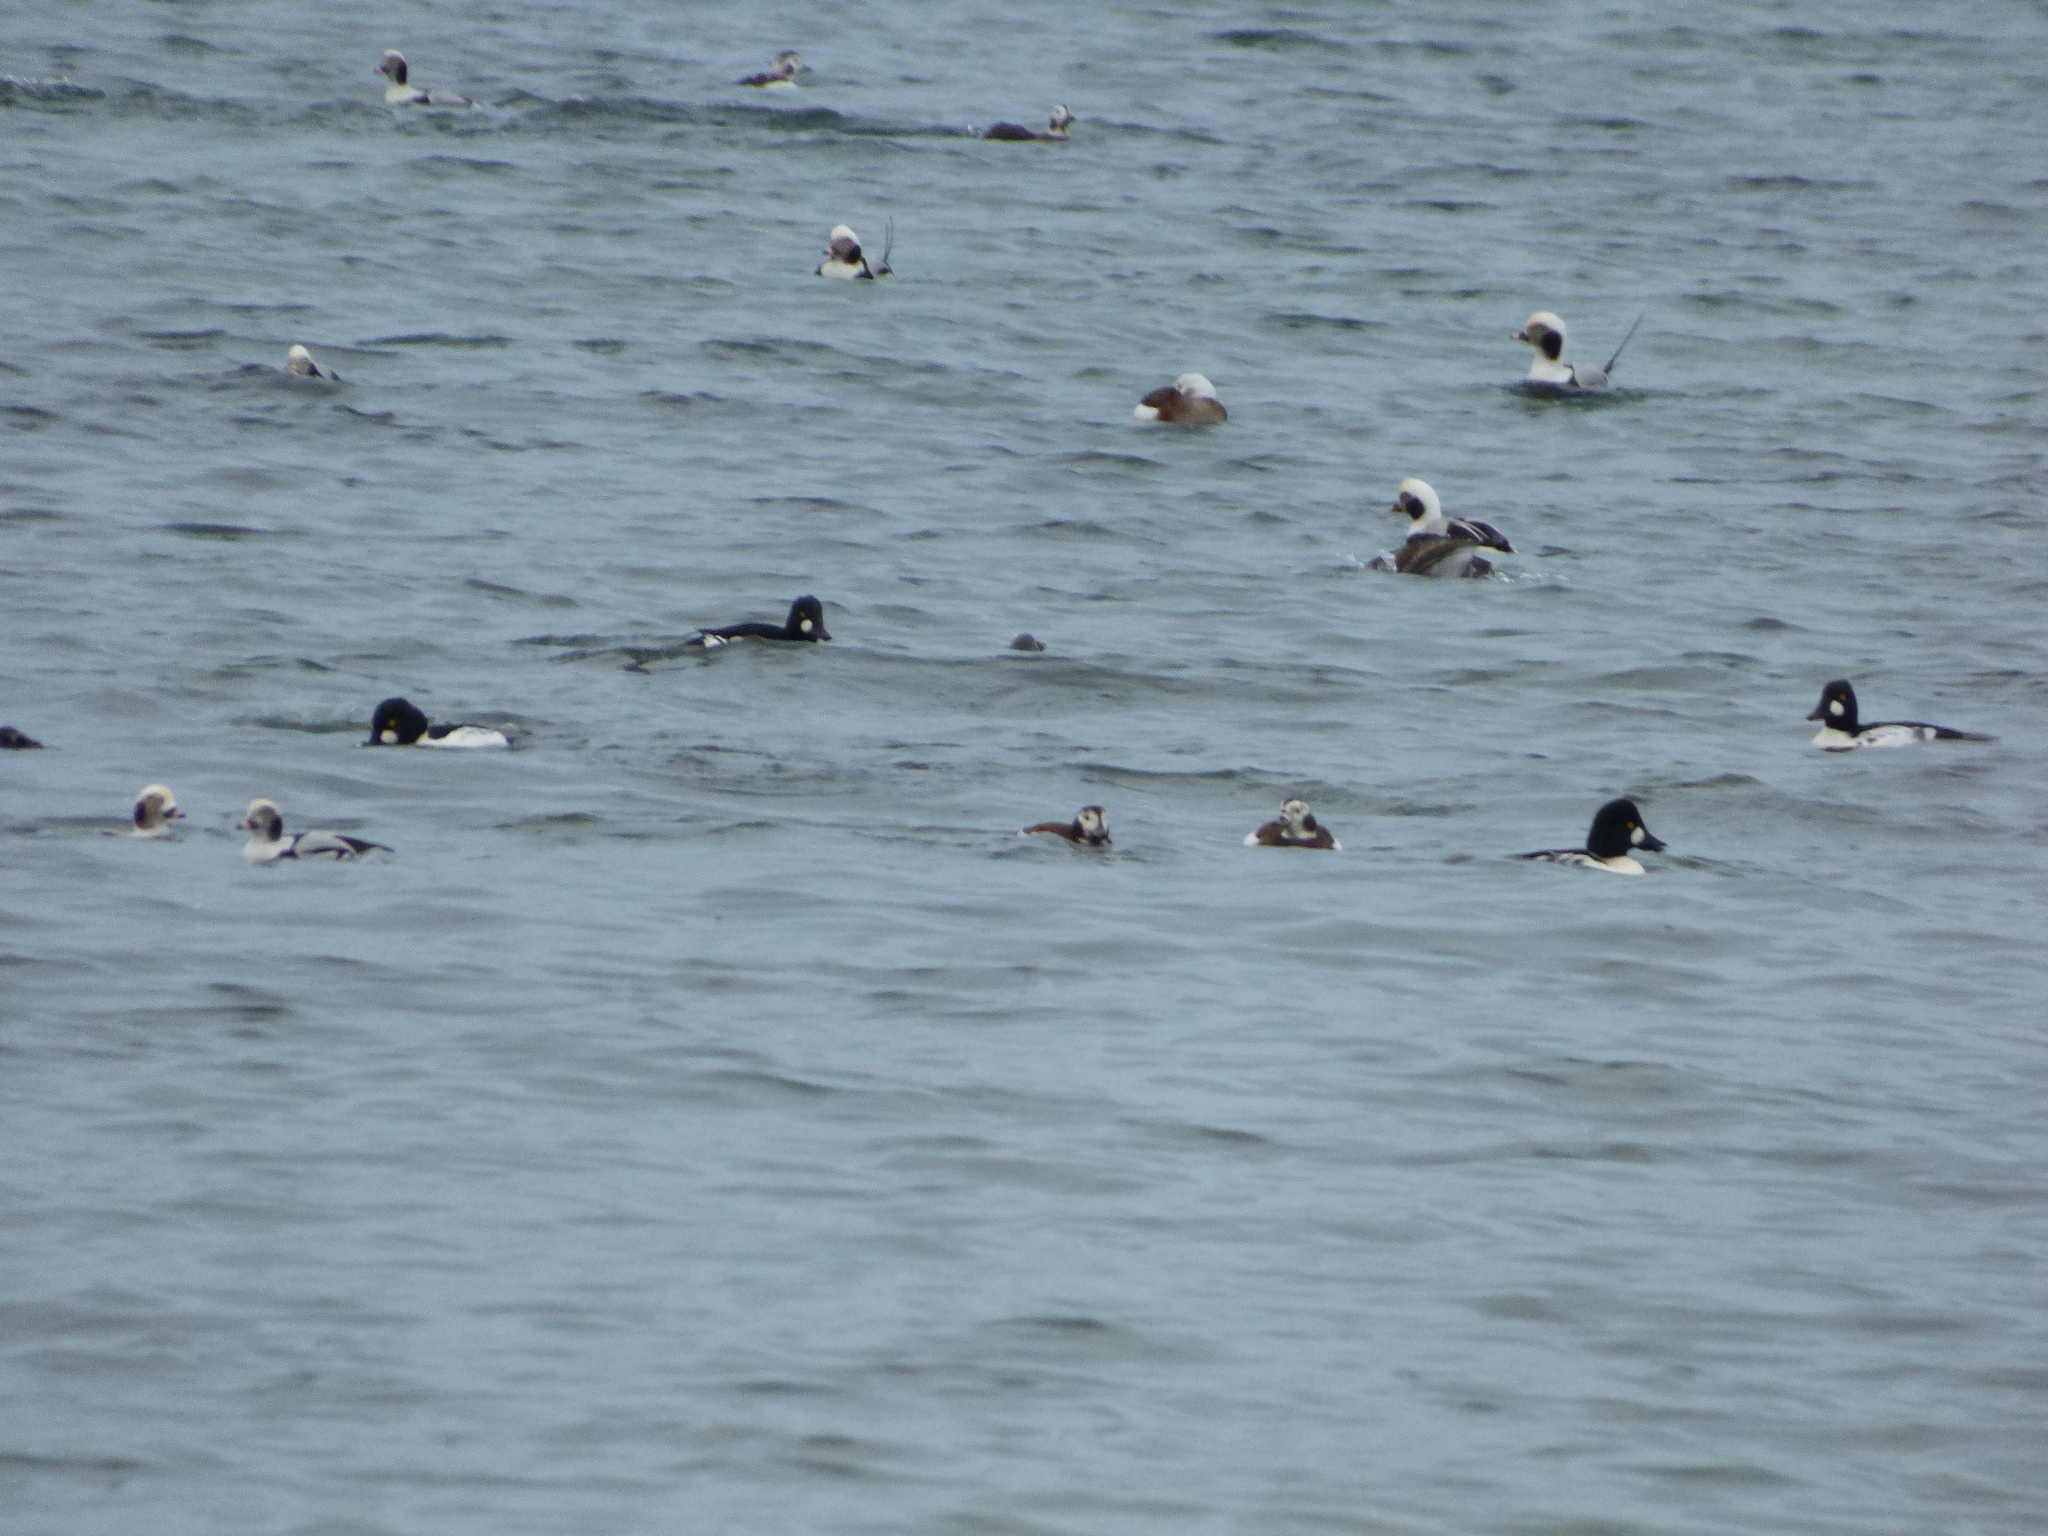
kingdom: Animalia
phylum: Chordata
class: Aves
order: Anseriformes
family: Anatidae
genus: Clangula
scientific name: Clangula hyemalis
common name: Long-tailed duck
